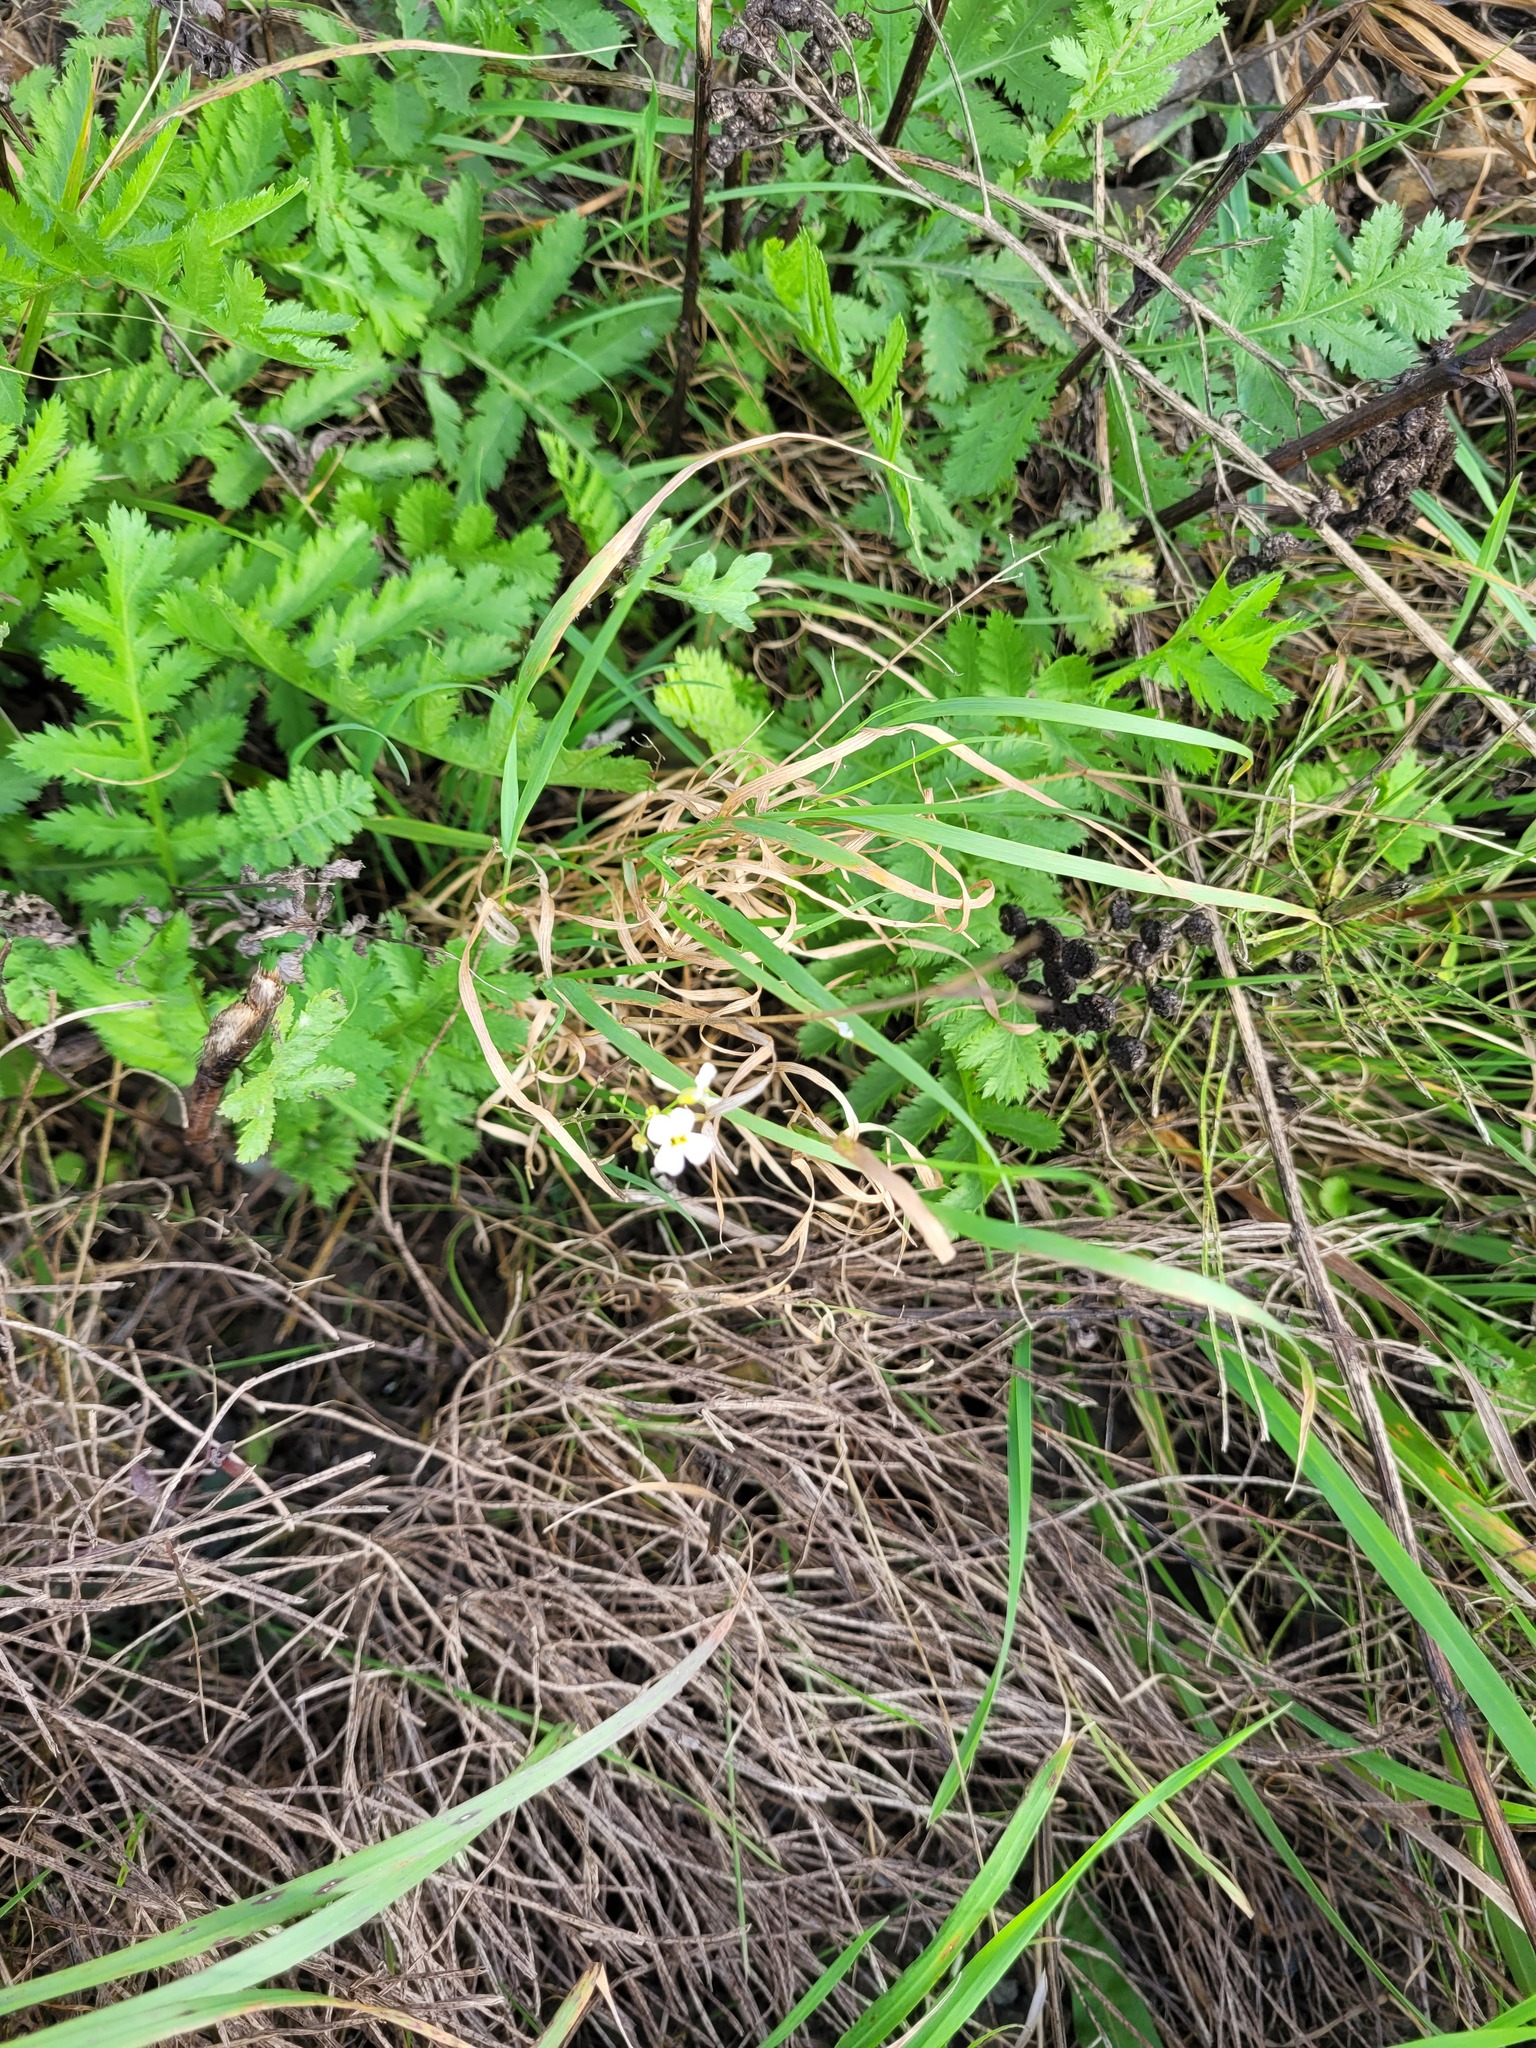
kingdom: Plantae
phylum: Tracheophyta
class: Magnoliopsida
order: Brassicales
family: Brassicaceae
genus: Arabidopsis
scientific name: Arabidopsis arenosa
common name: Sand rock-cress
